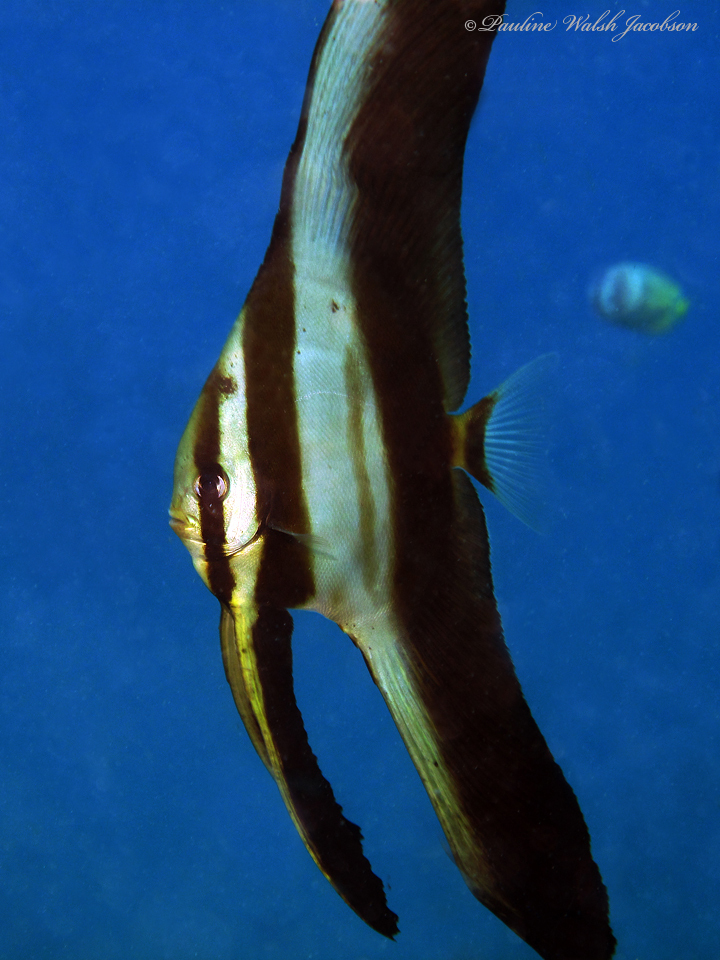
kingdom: Animalia
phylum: Chordata
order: Perciformes
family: Ephippidae
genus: Platax
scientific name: Platax teira
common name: Longfin baitfish
